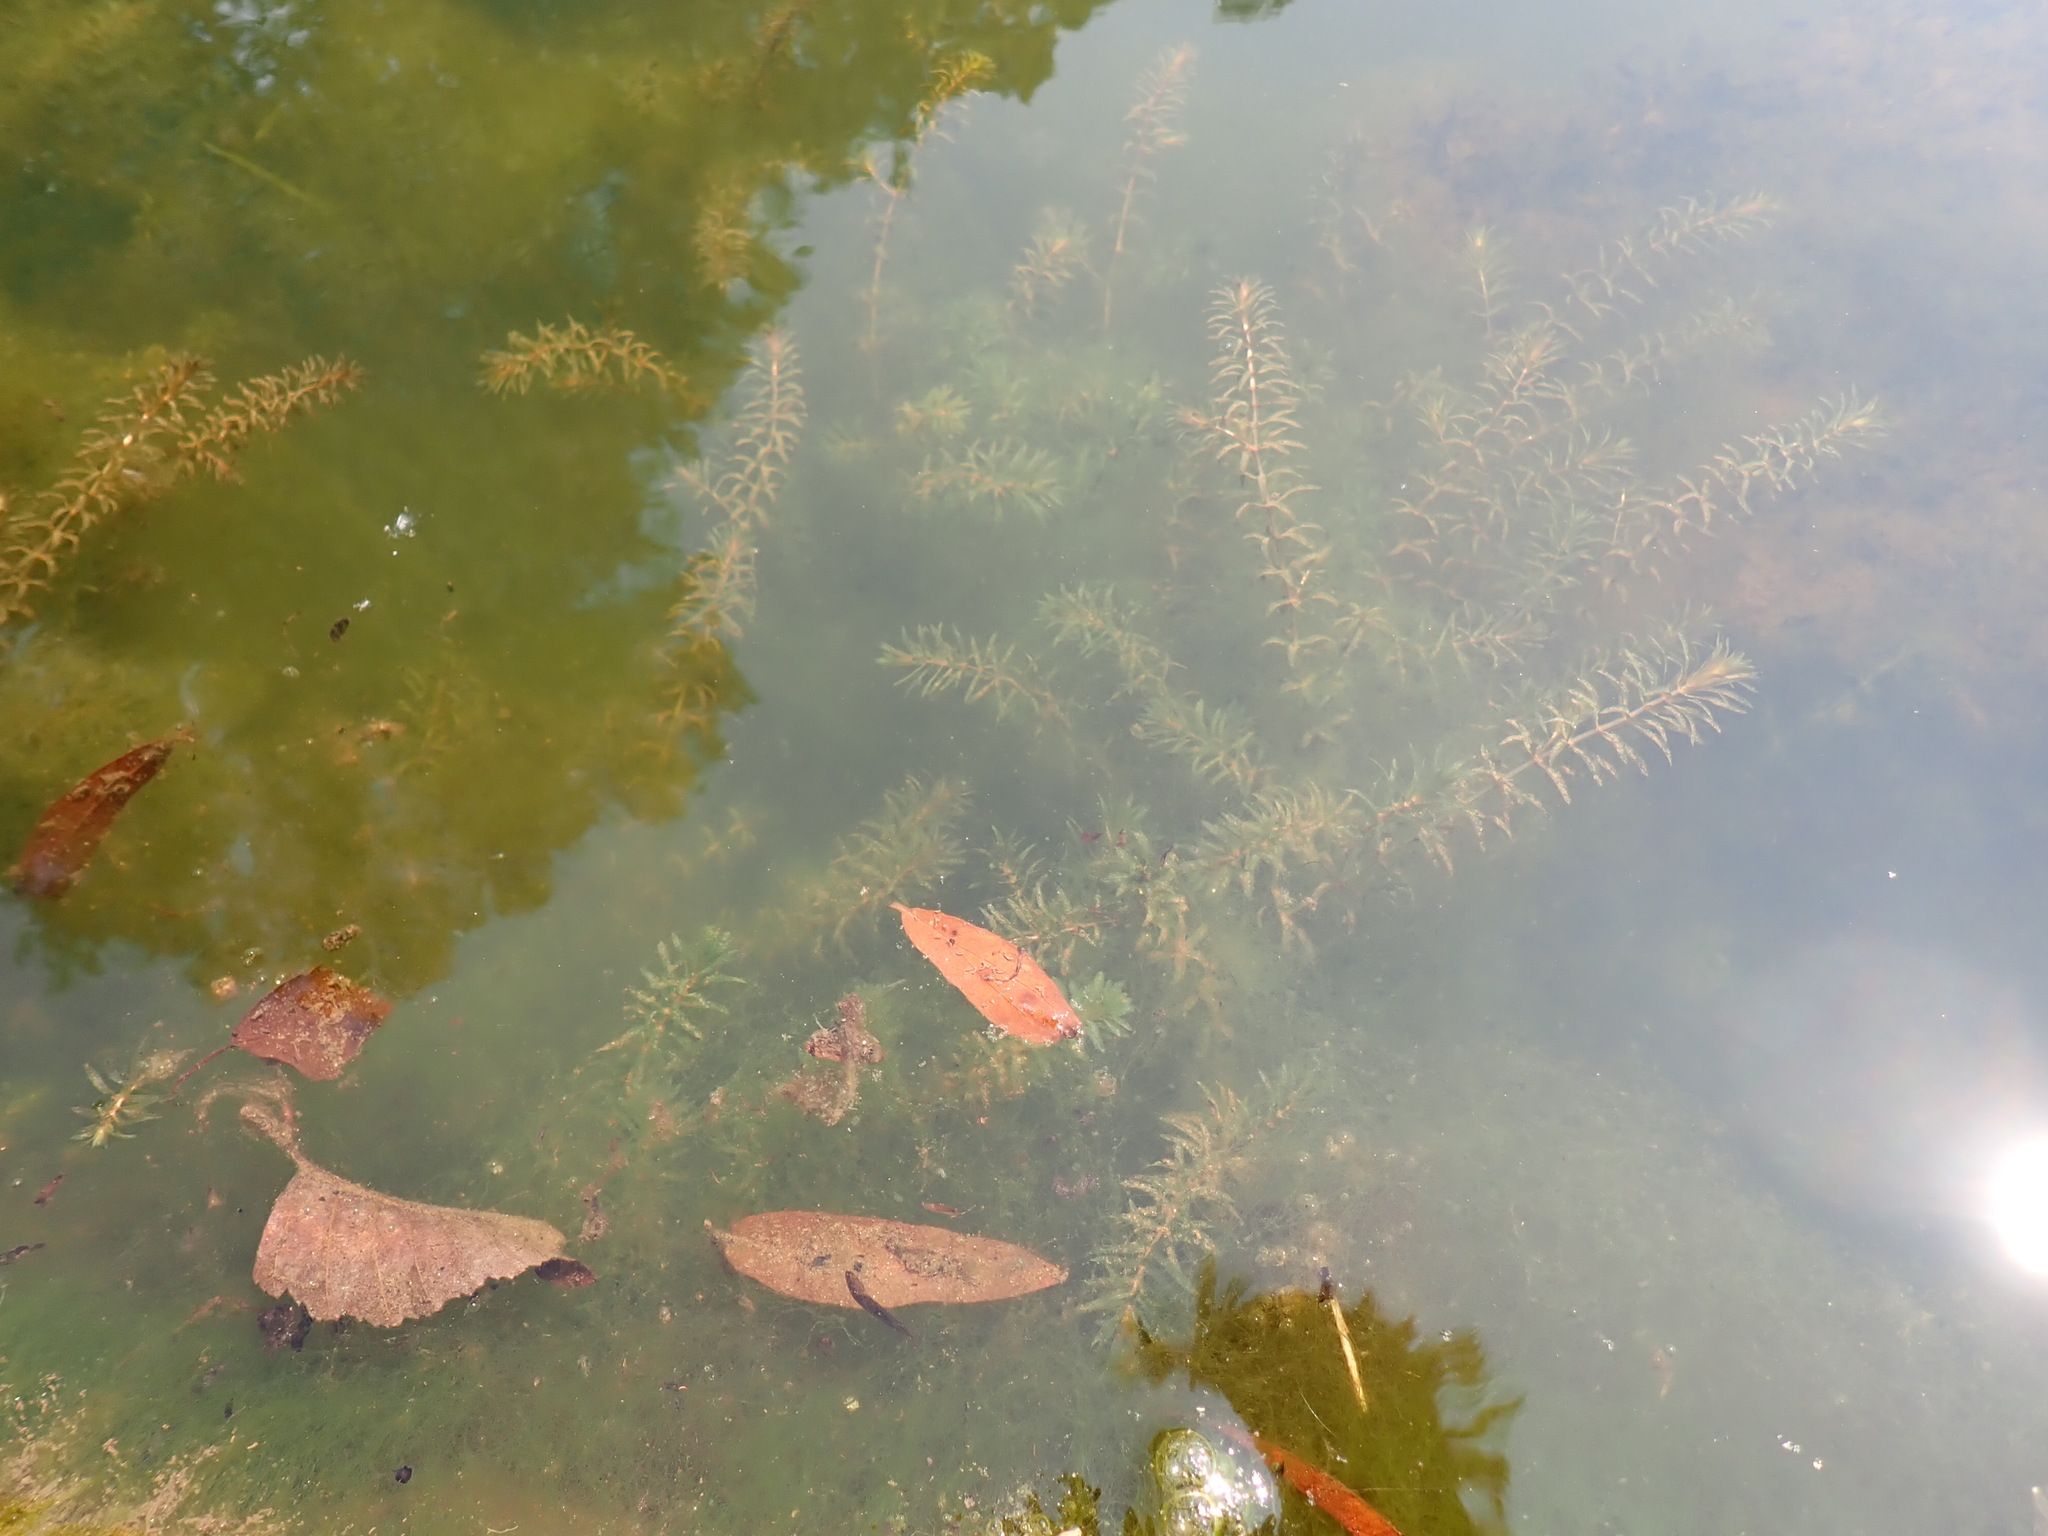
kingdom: Plantae
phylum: Tracheophyta
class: Liliopsida
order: Alismatales
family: Hydrocharitaceae
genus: Hydrilla
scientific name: Hydrilla verticillata
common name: Florida-elodea
